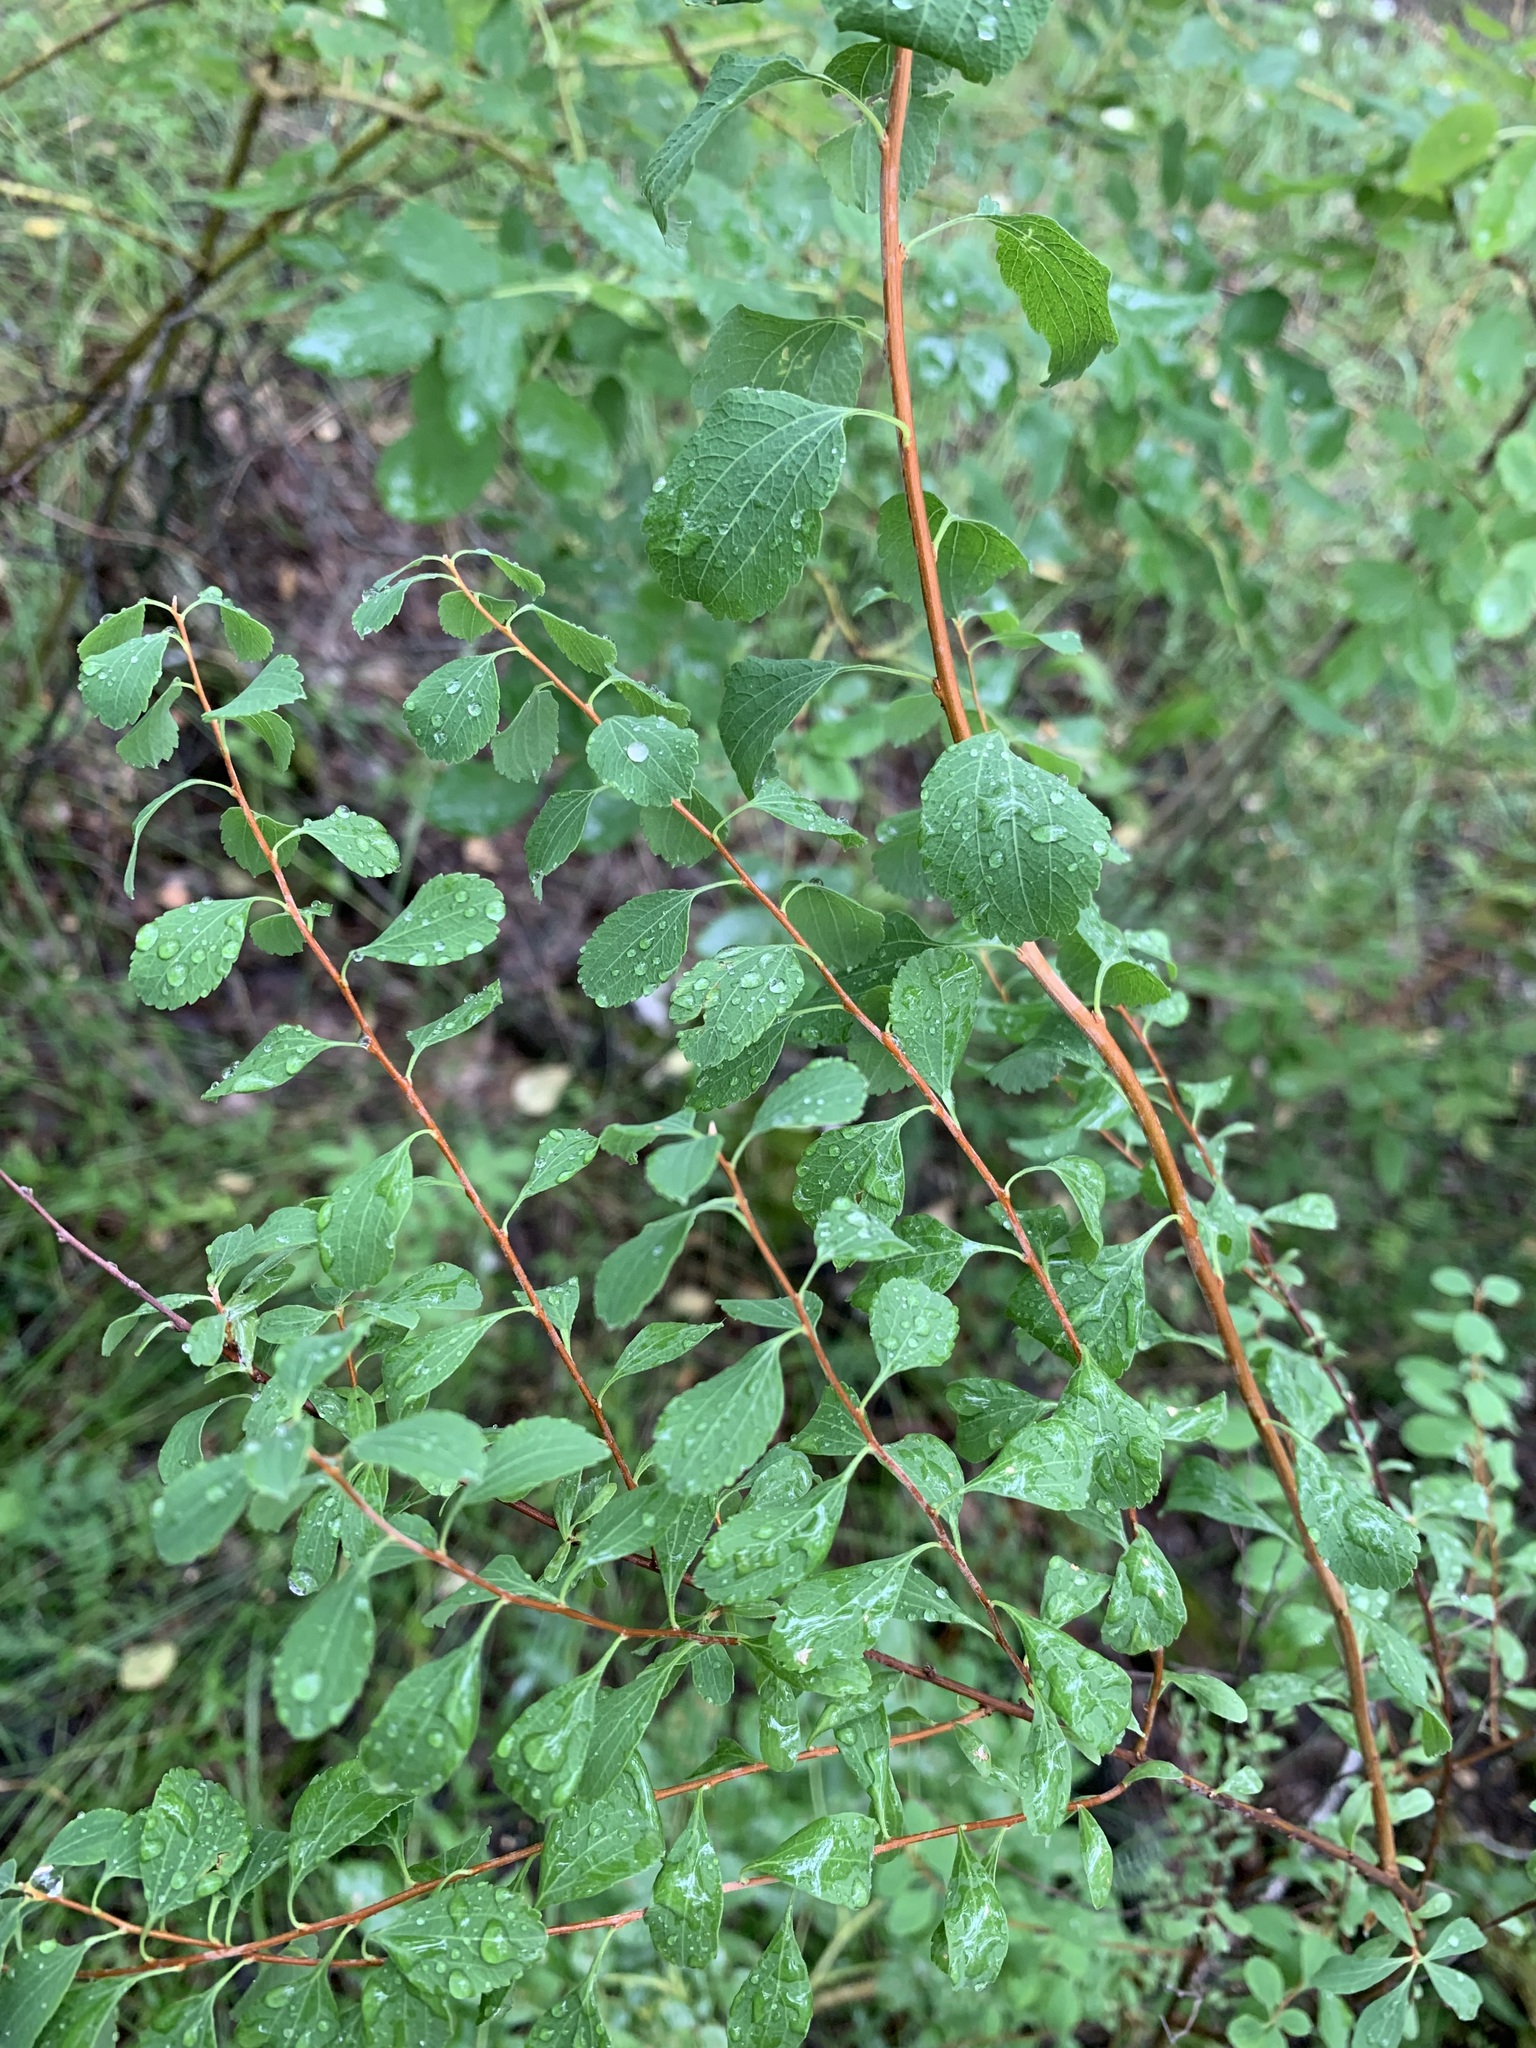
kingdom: Plantae
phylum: Tracheophyta
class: Magnoliopsida
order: Rosales
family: Rosaceae
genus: Spiraea
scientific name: Spiraea crenata
